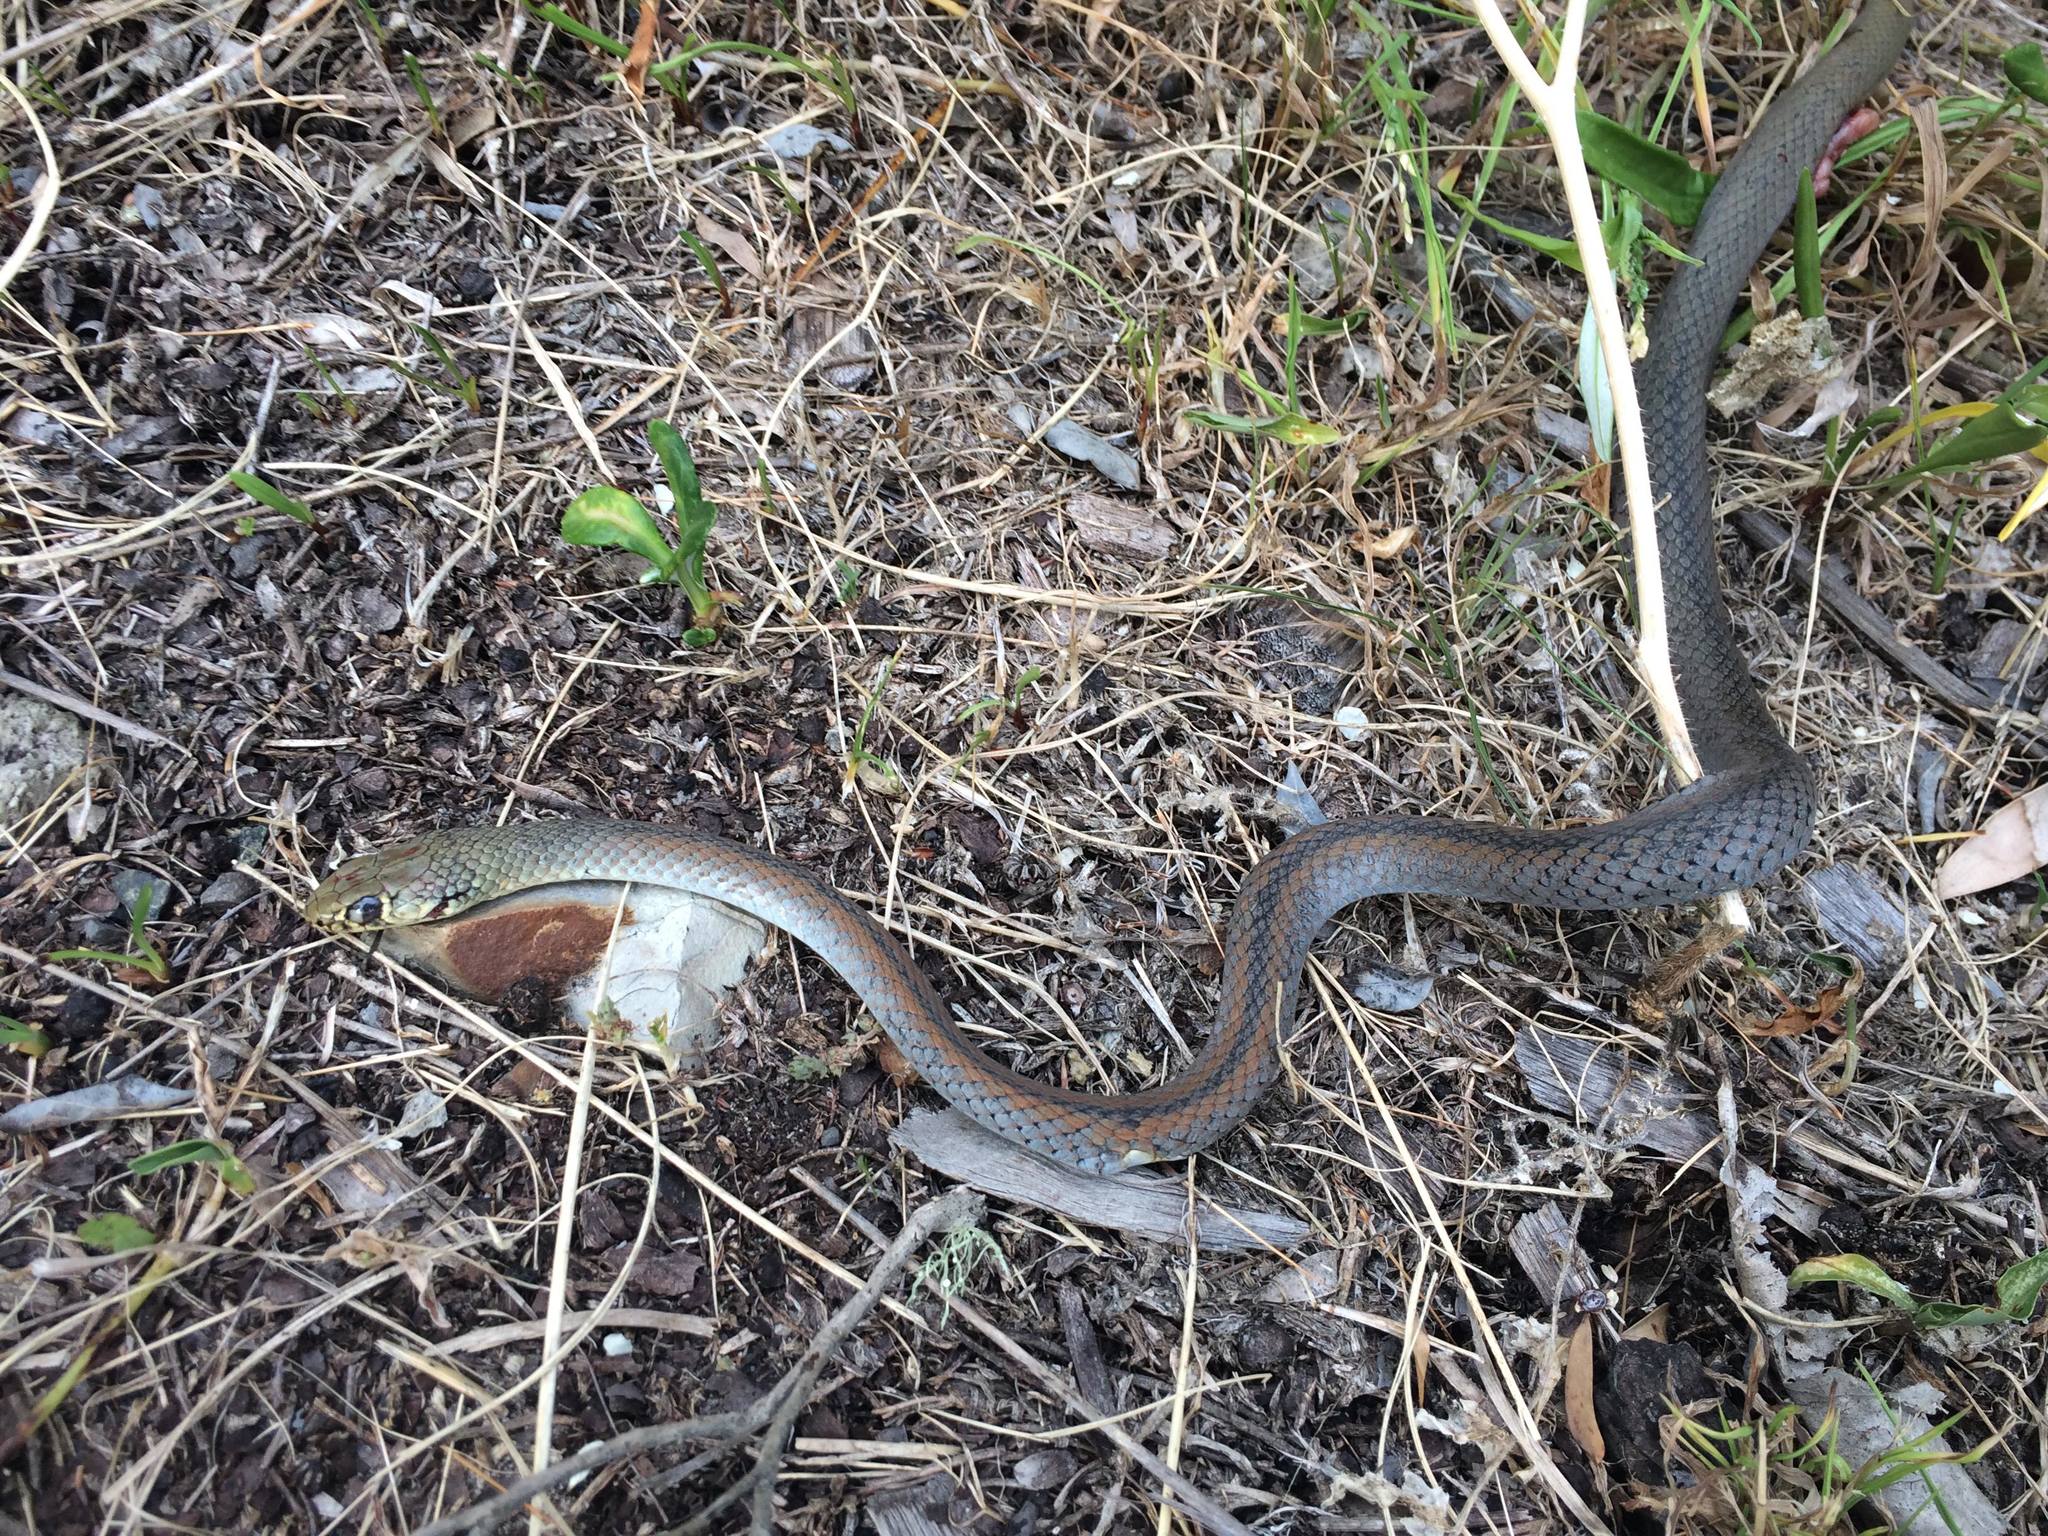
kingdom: Animalia
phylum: Chordata
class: Squamata
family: Elapidae
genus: Demansia
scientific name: Demansia psammophis
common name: Yellow-faced whip snake
